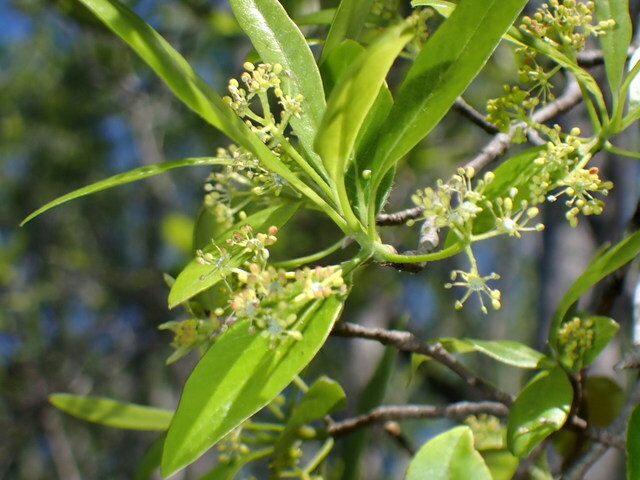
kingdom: Plantae
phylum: Tracheophyta
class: Magnoliopsida
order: Cornales
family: Nyssaceae
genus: Nyssa
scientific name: Nyssa biflora
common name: Swamp blackgum
